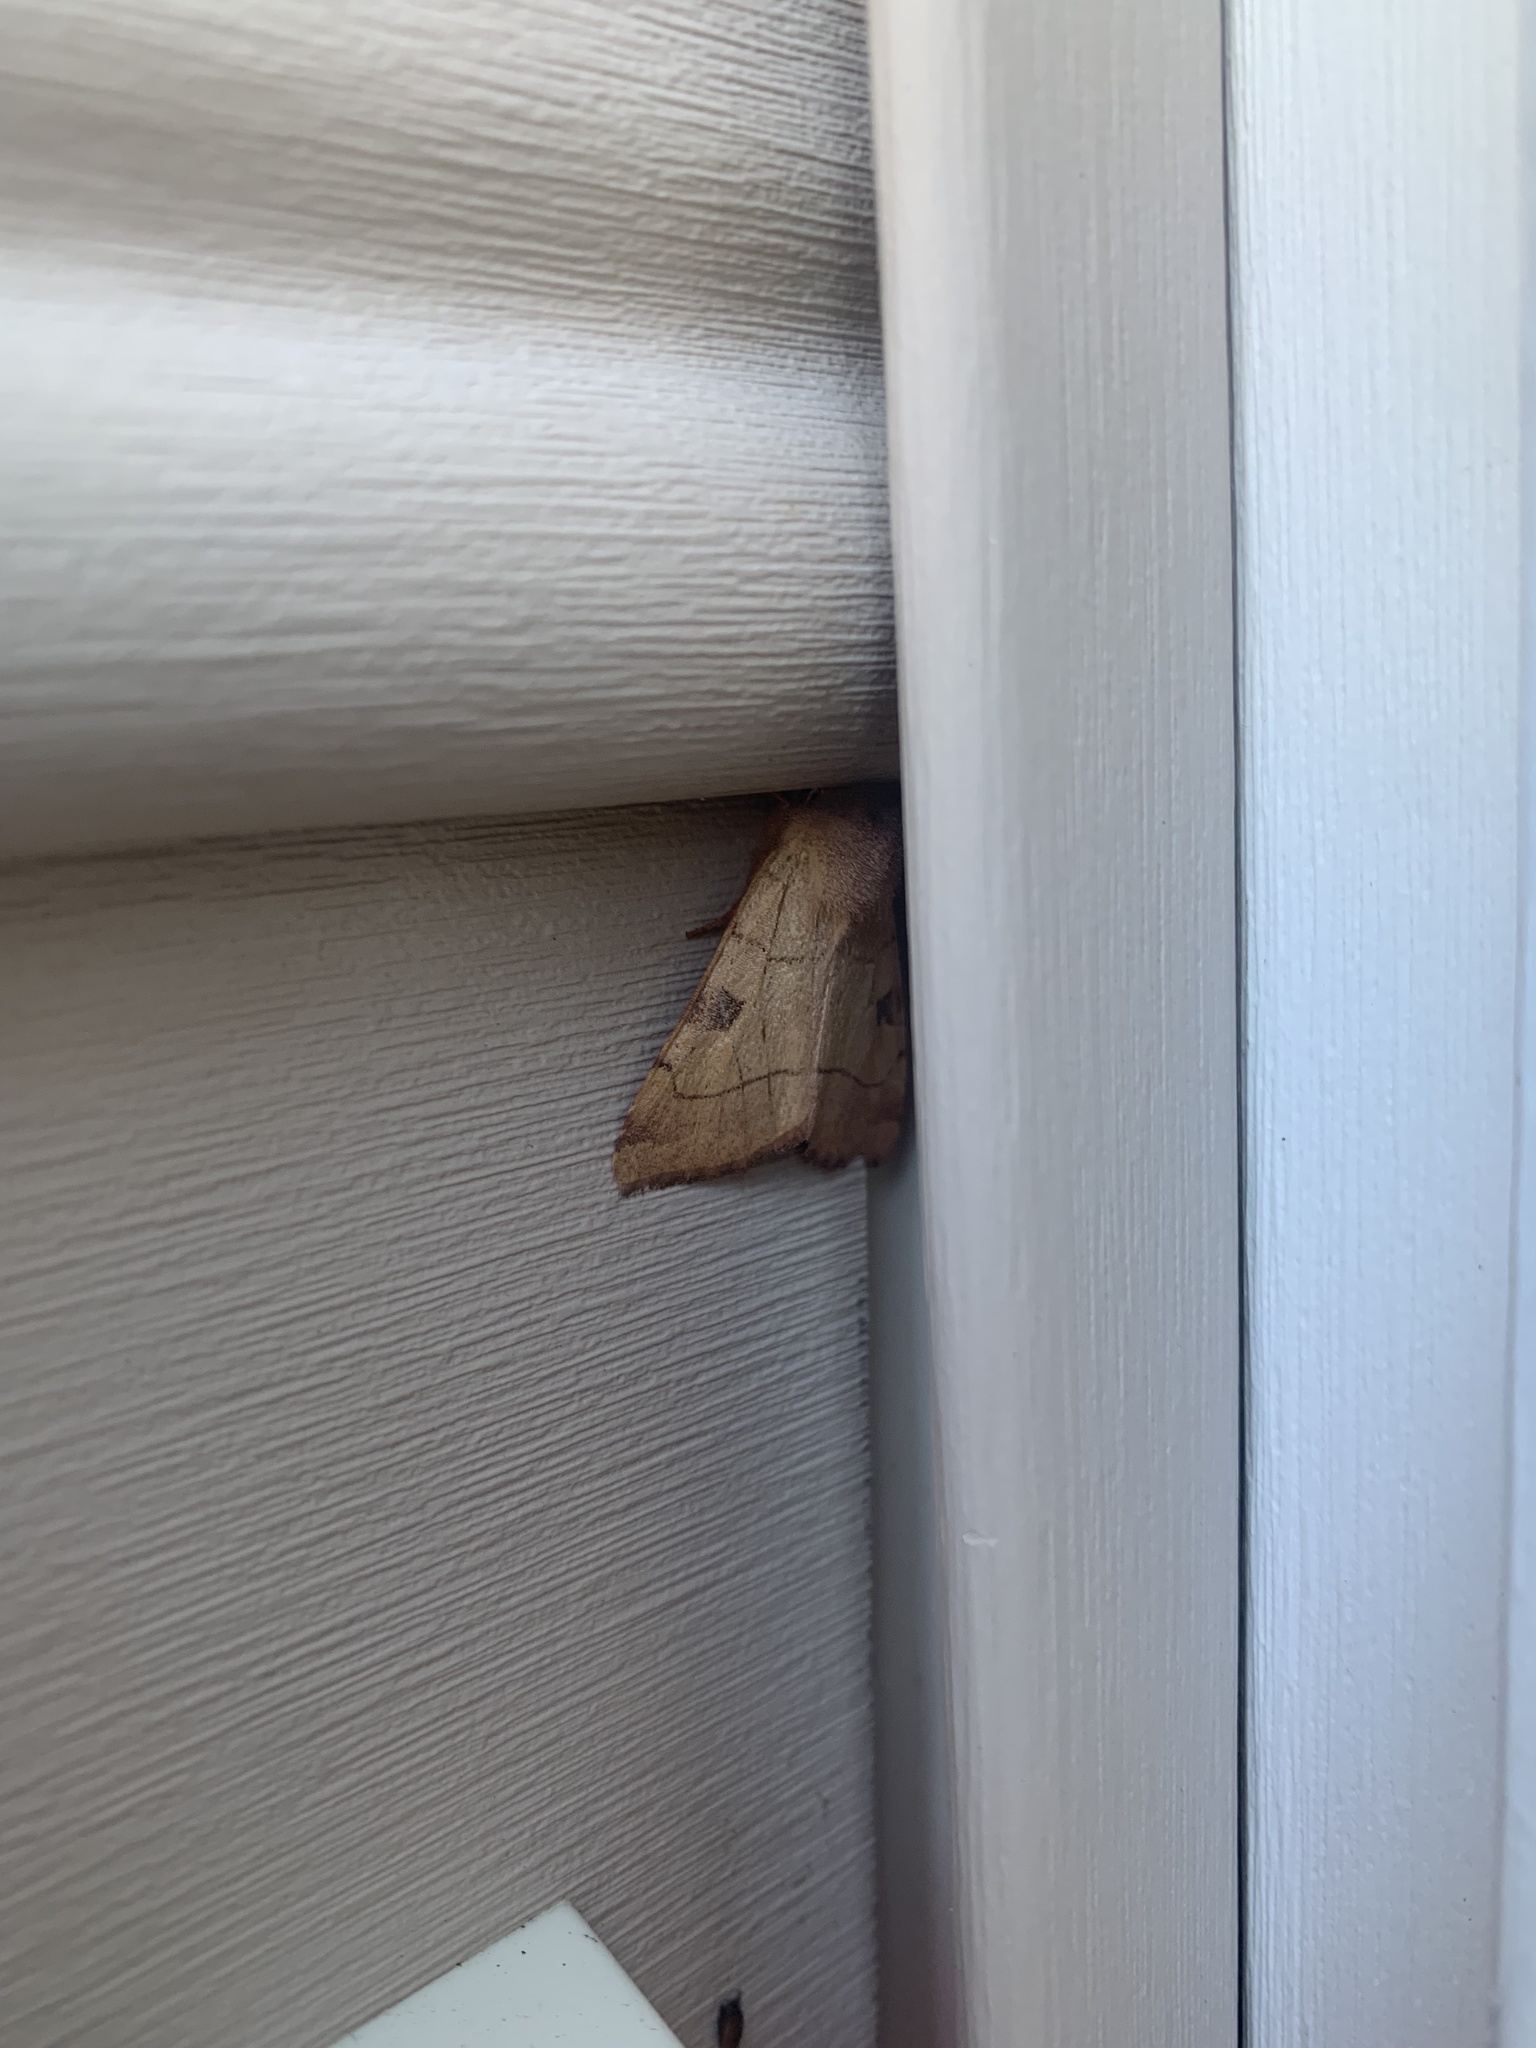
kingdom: Animalia
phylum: Arthropoda
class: Insecta
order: Lepidoptera
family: Noctuidae
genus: Choephora
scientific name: Choephora fungorum
